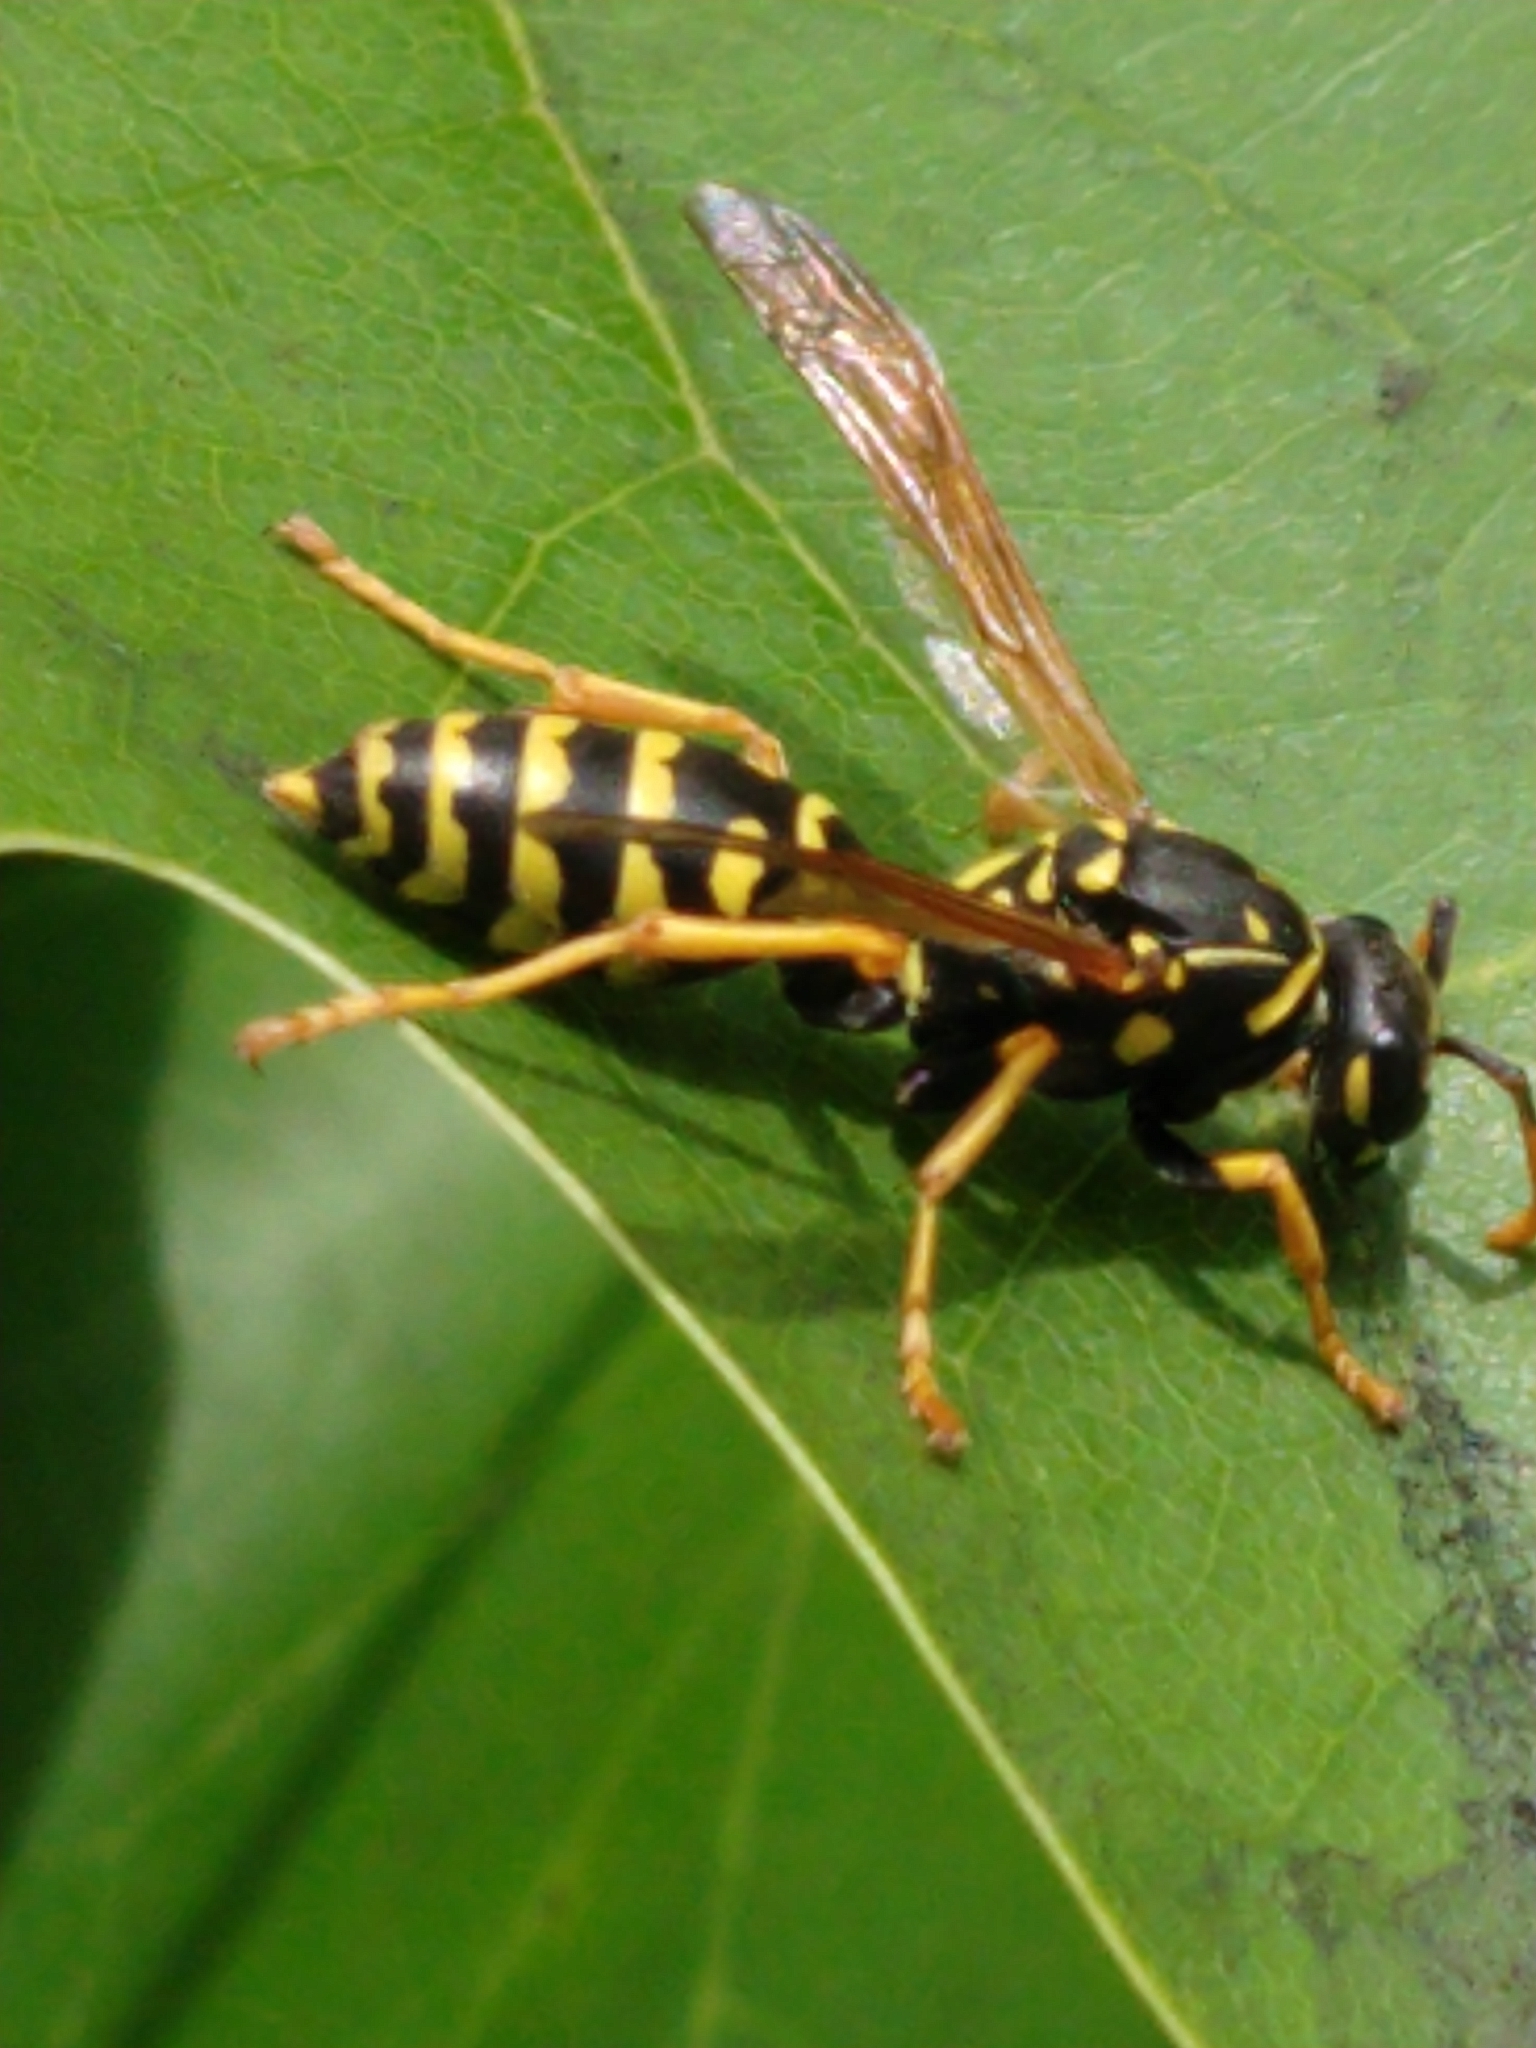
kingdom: Animalia
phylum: Arthropoda
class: Insecta
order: Hymenoptera
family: Eumenidae
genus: Polistes
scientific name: Polistes dominula
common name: Paper wasp
